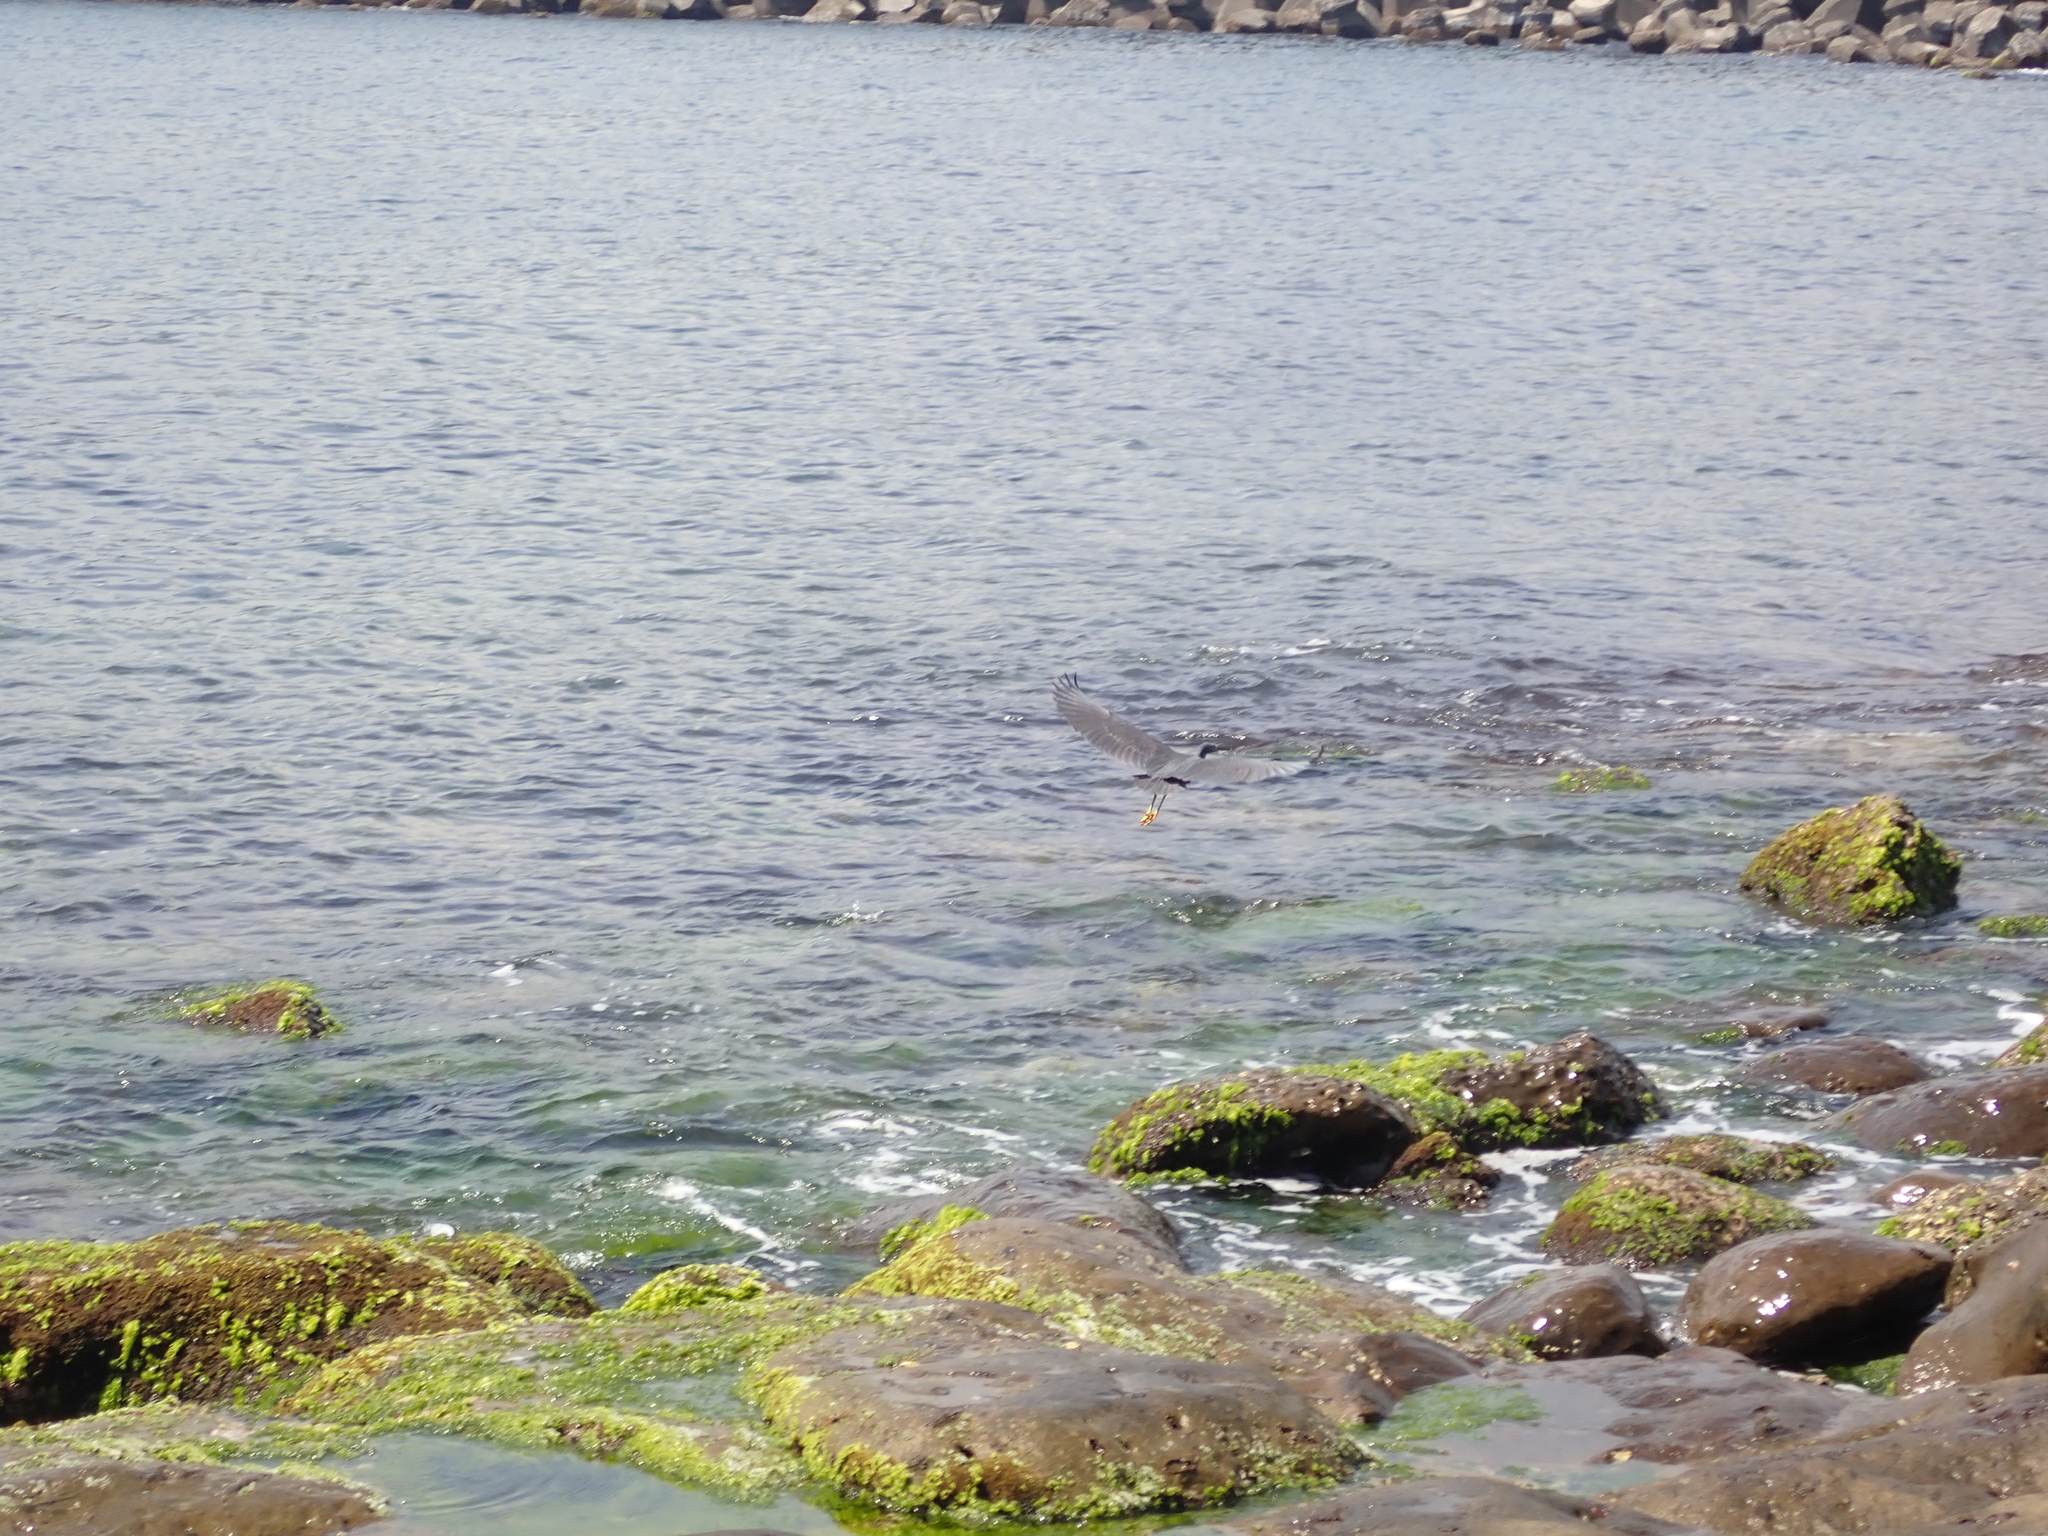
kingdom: Animalia
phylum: Chordata
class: Aves
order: Pelecaniformes
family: Ardeidae
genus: Egretta
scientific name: Egretta sacra
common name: Pacific reef heron
